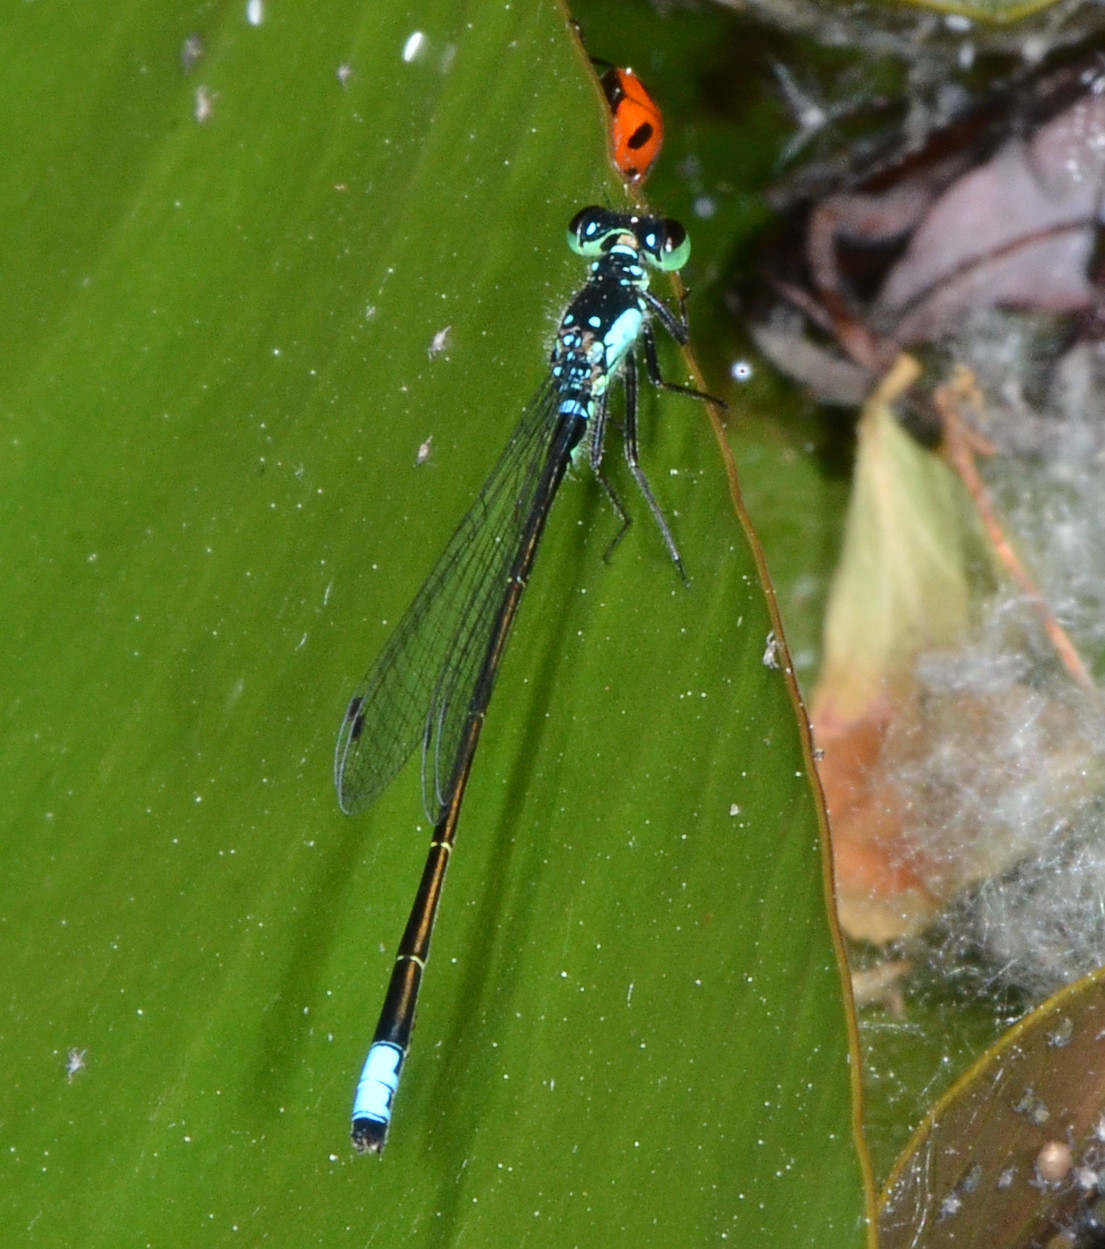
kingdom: Animalia
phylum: Arthropoda
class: Insecta
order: Odonata
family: Coenagrionidae
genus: Ischnura
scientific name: Ischnura cervula
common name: Pacific forktail
